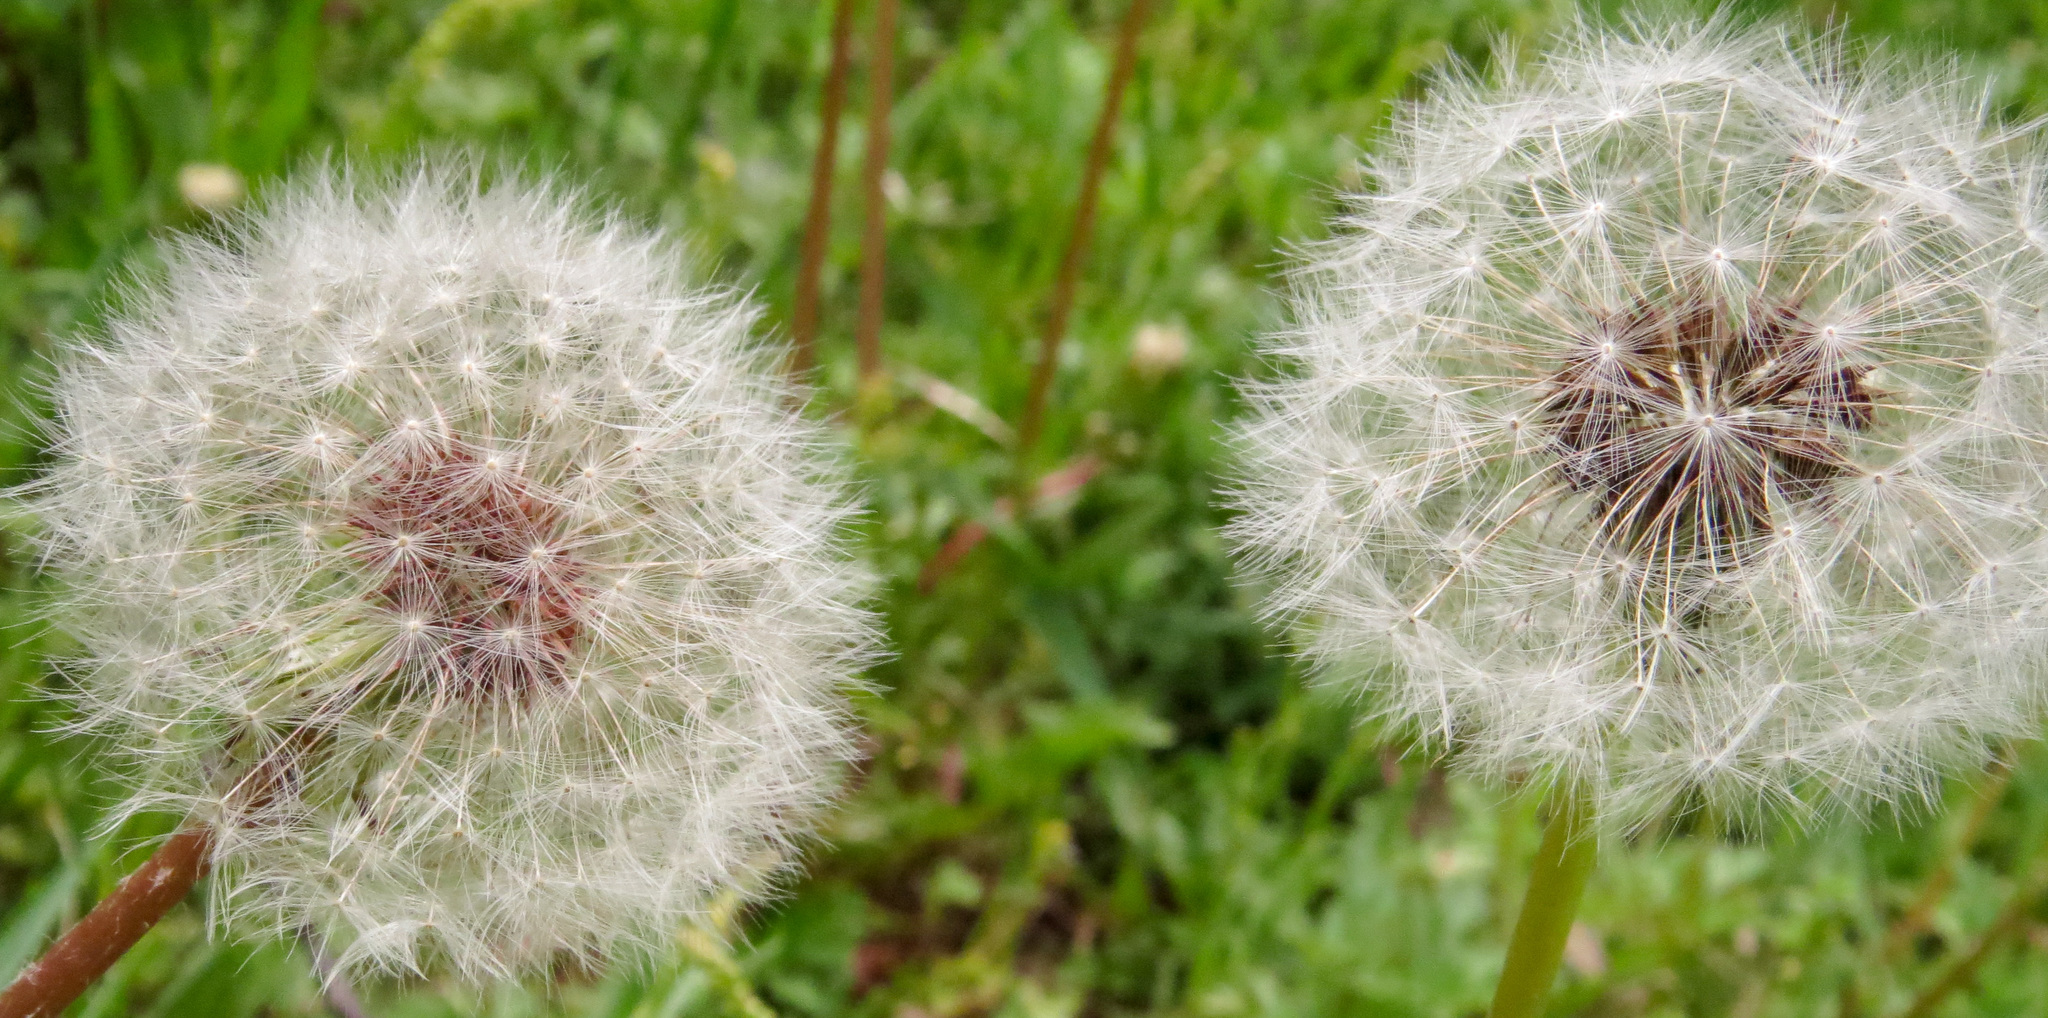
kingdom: Plantae
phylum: Tracheophyta
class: Magnoliopsida
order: Asterales
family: Asteraceae
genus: Taraxacum
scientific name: Taraxacum officinale
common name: Common dandelion
